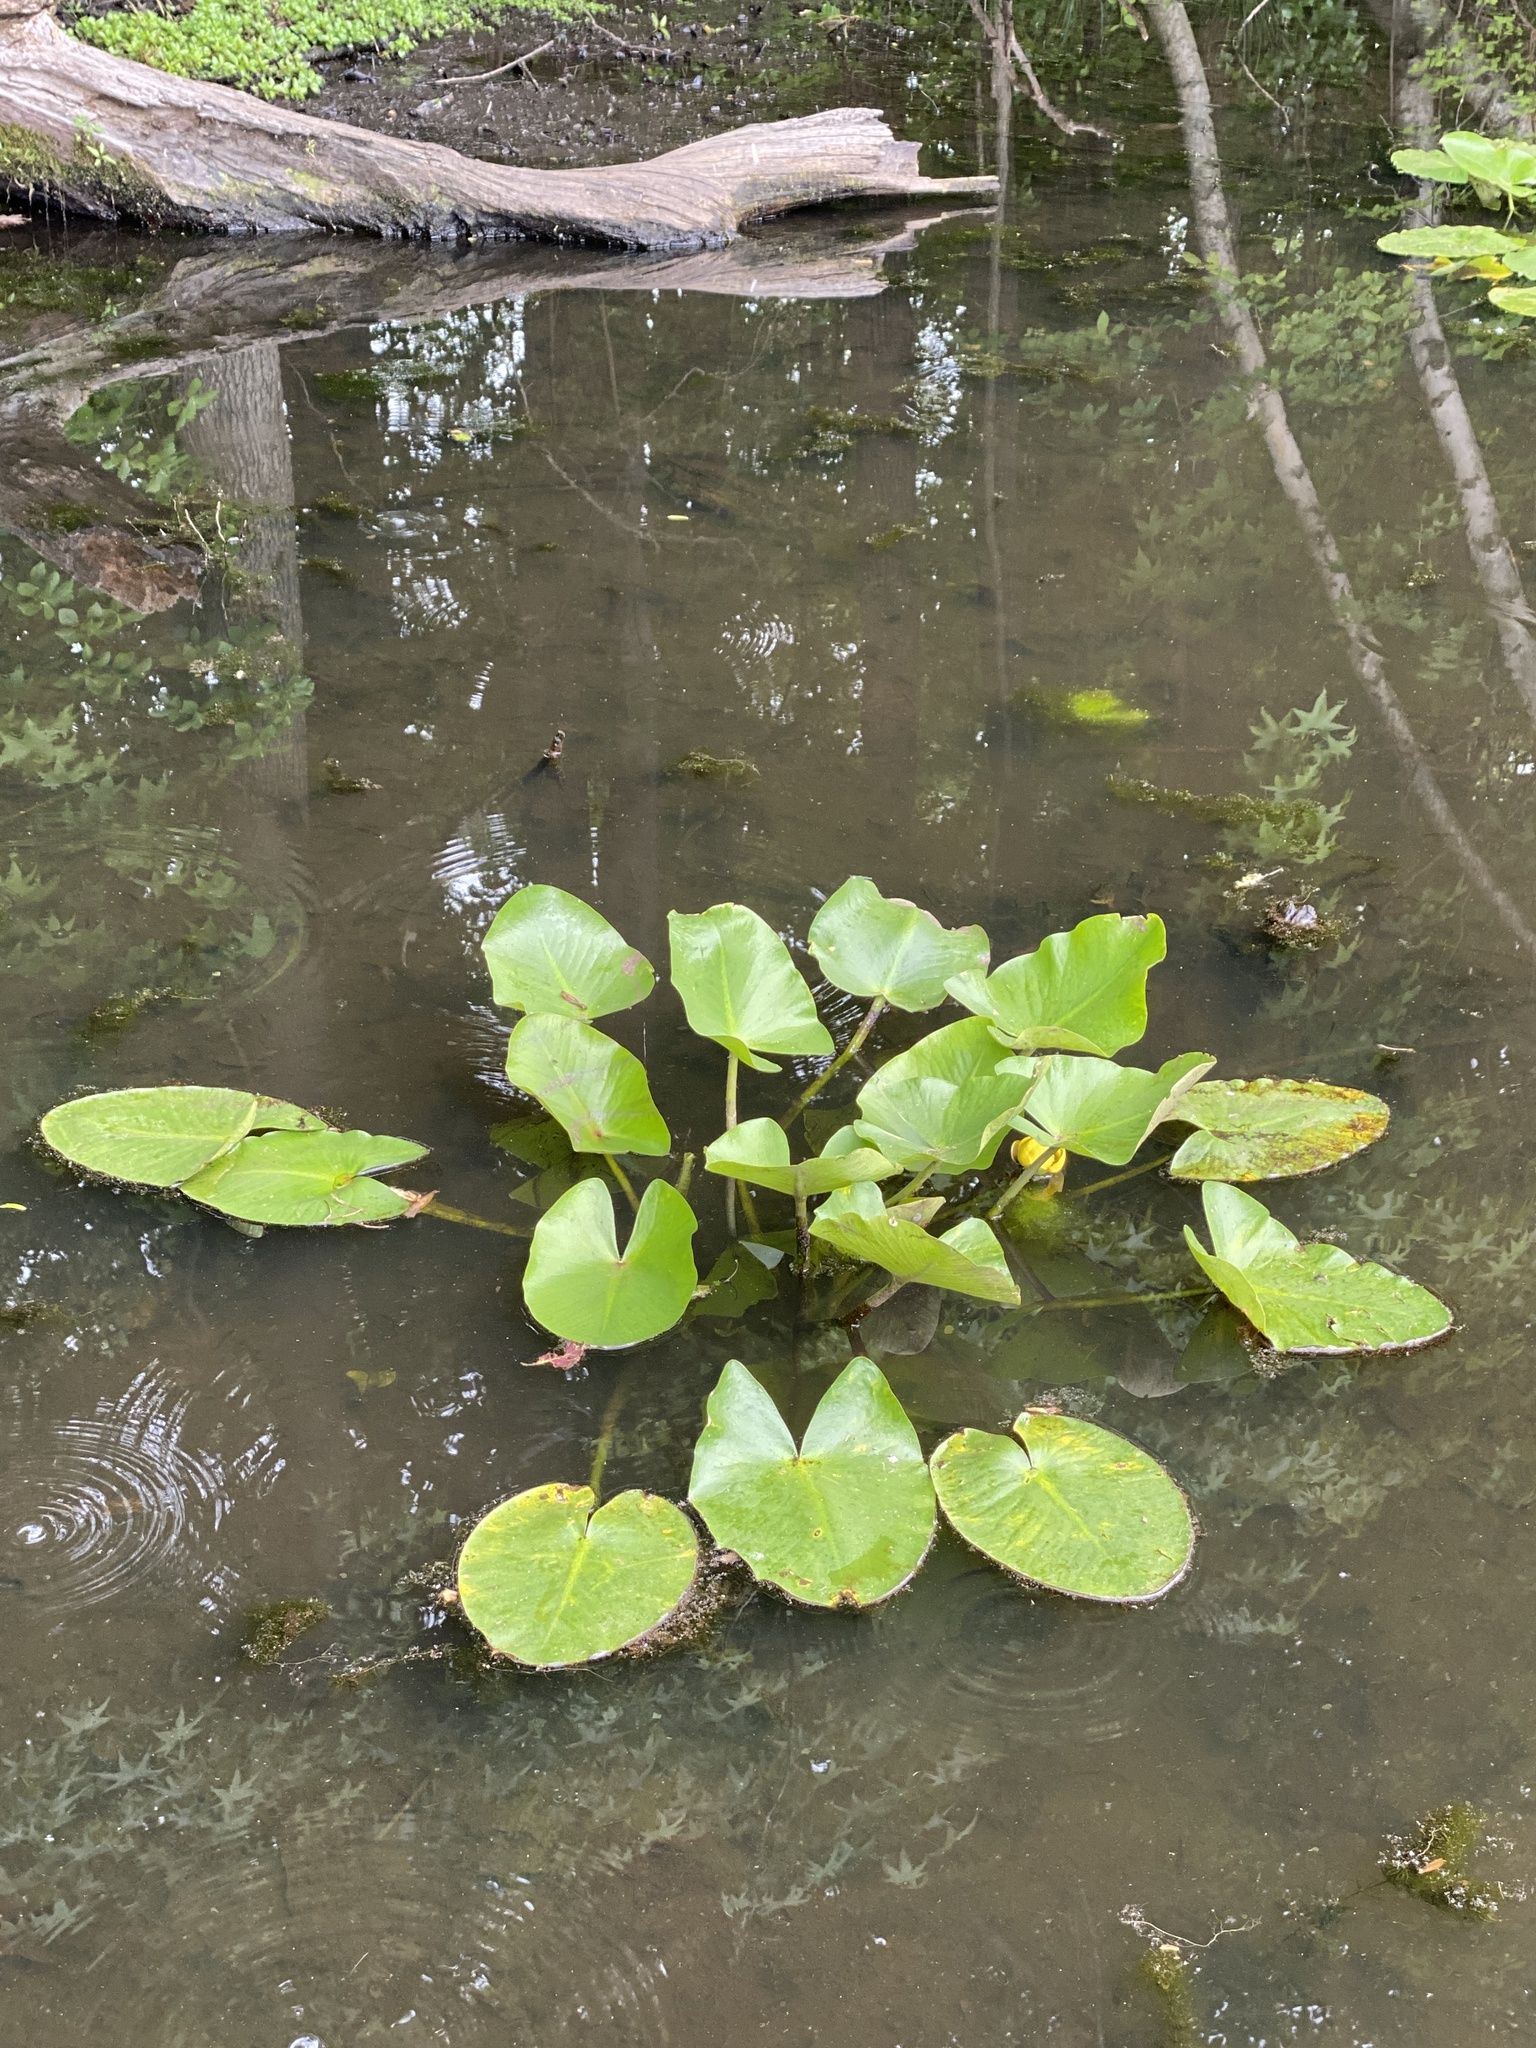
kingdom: Plantae
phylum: Tracheophyta
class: Magnoliopsida
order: Nymphaeales
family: Nymphaeaceae
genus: Nuphar
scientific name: Nuphar advena
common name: Spatter-dock
